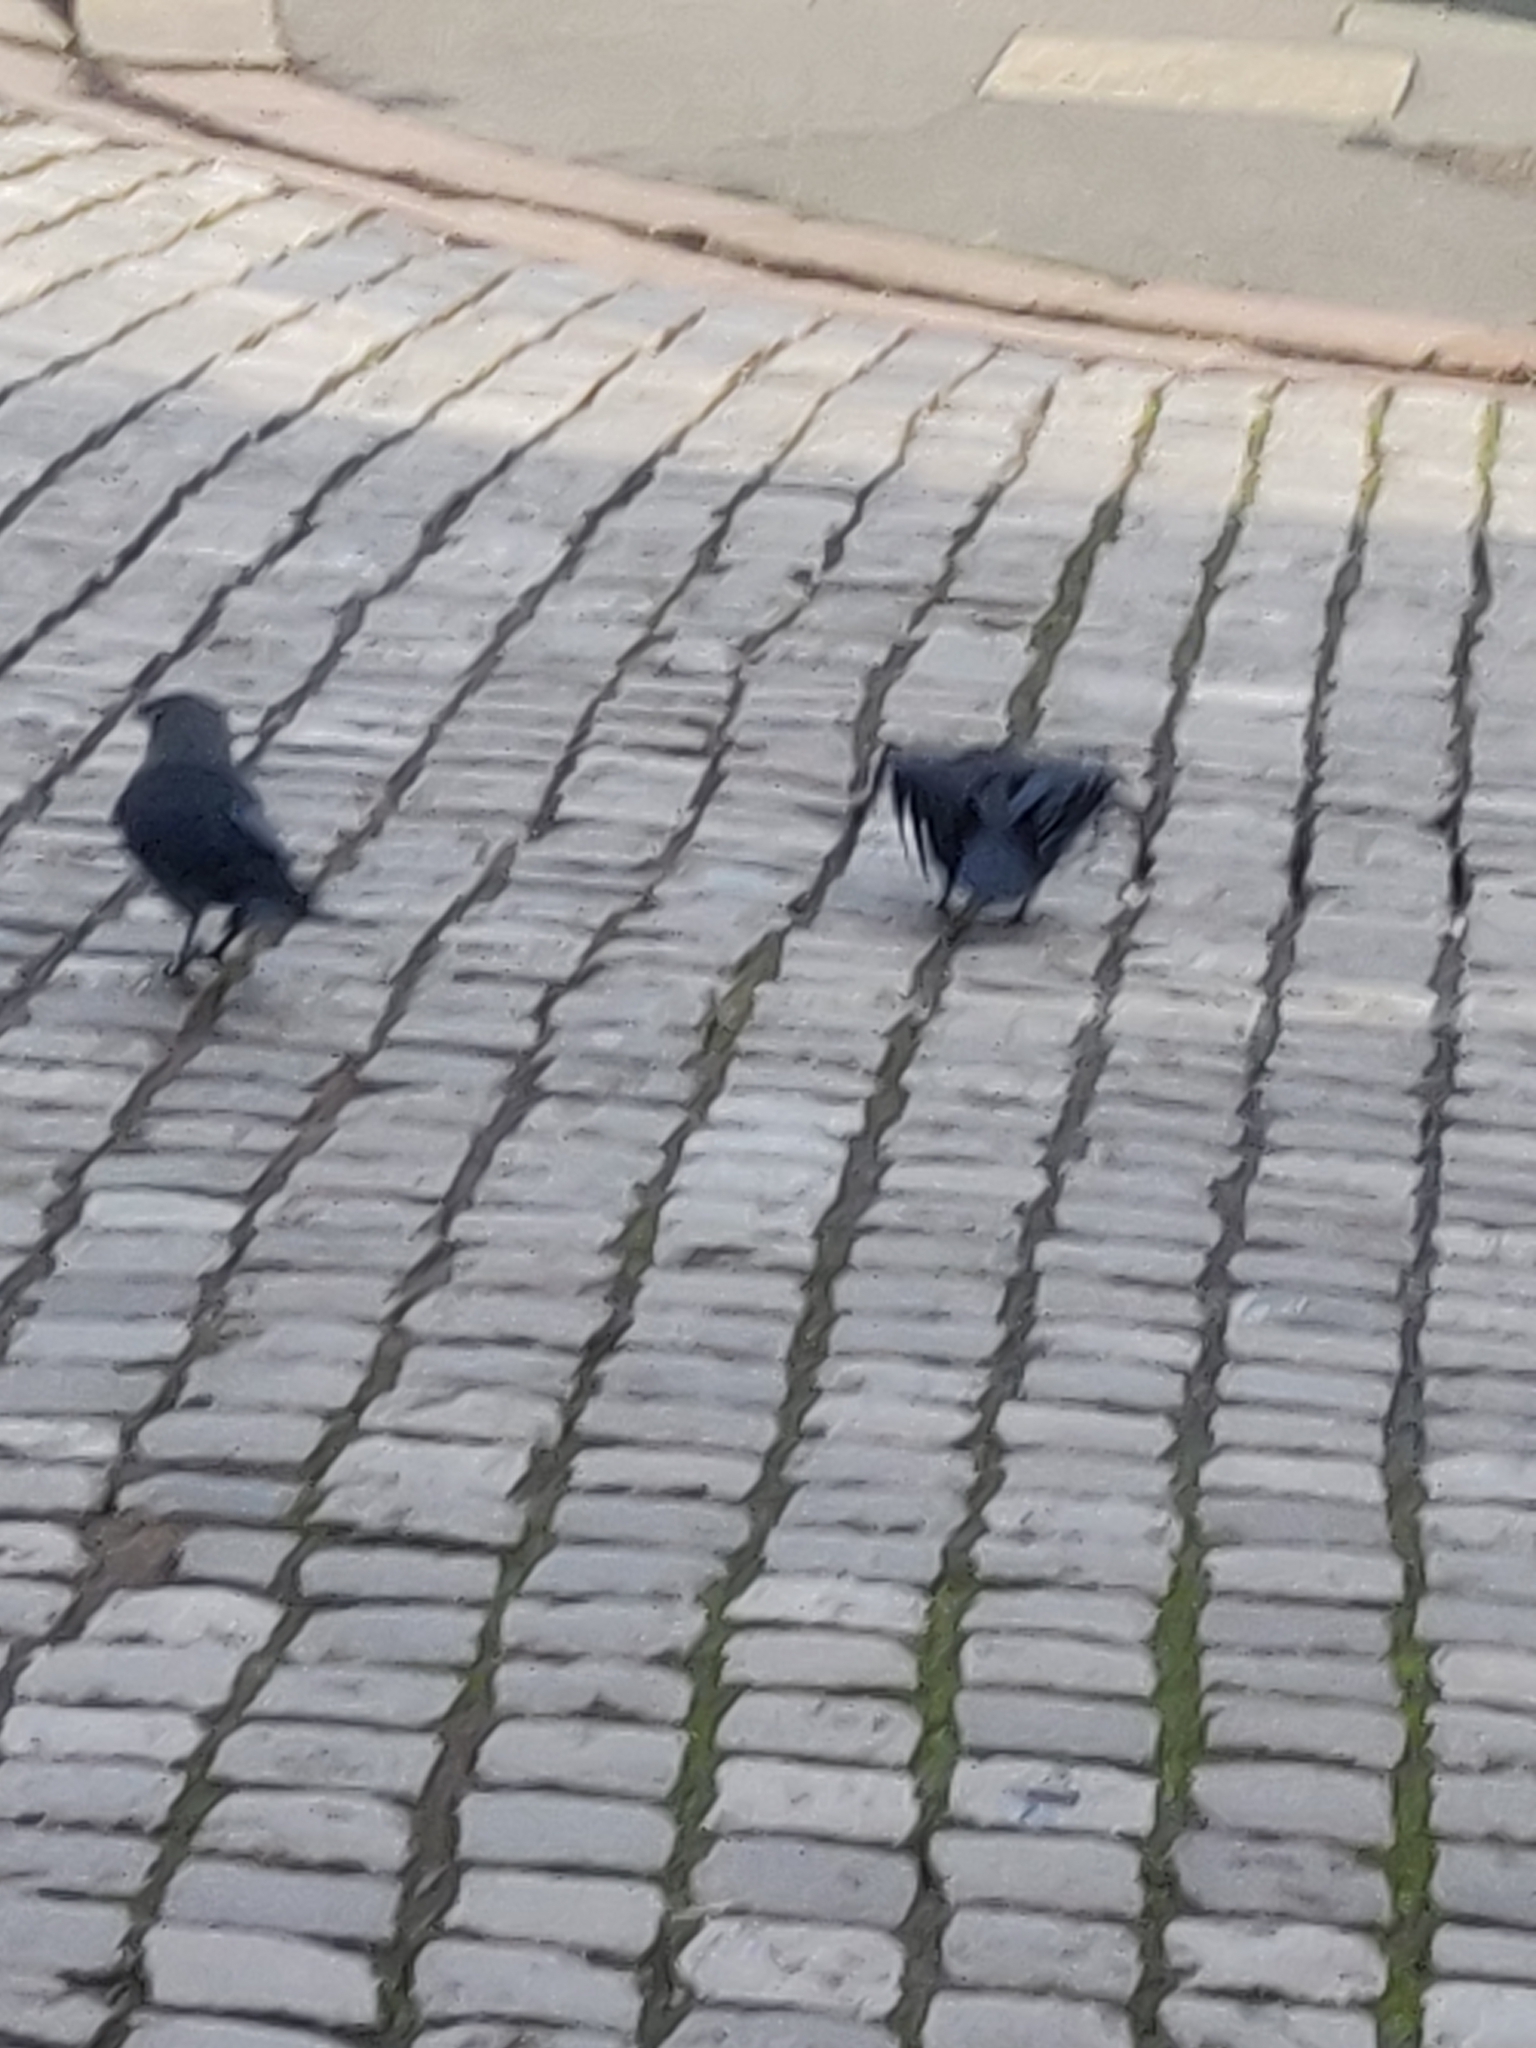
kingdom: Animalia
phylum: Chordata
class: Aves
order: Passeriformes
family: Corvidae
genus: Coloeus
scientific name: Coloeus monedula
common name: Western jackdaw
